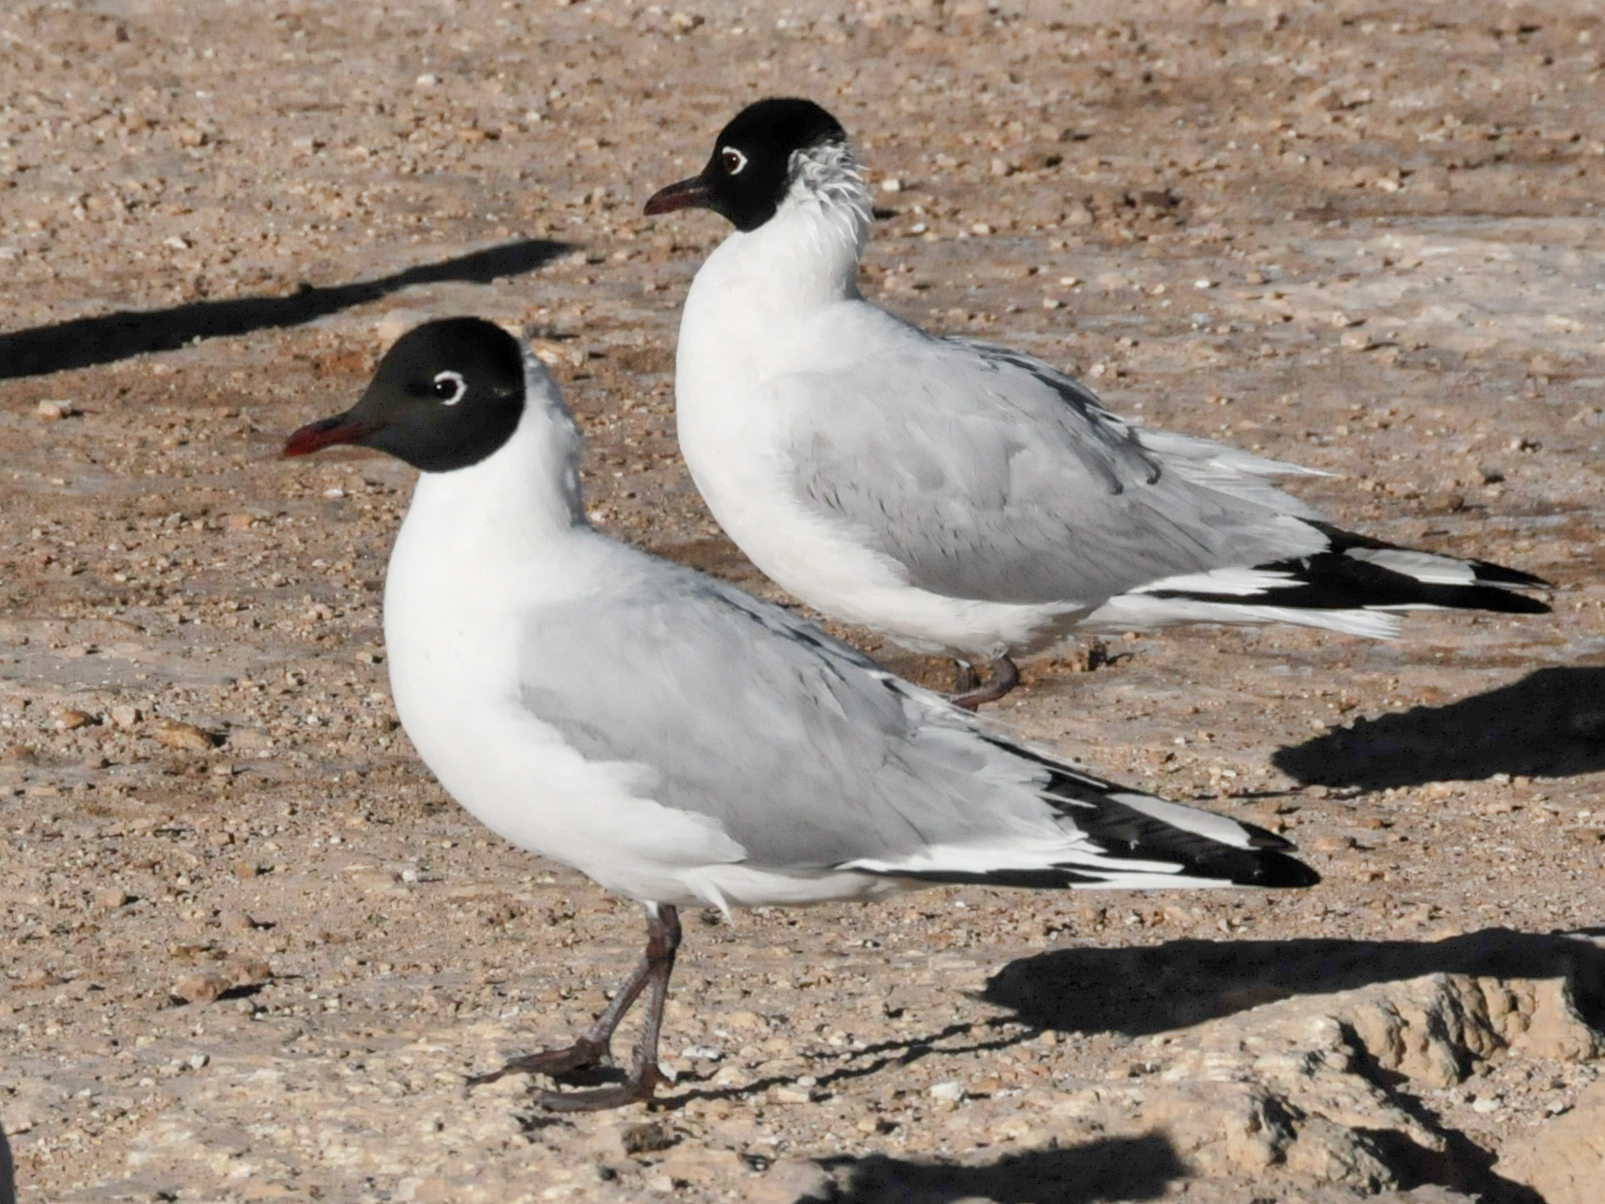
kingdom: Animalia
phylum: Chordata
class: Aves
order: Charadriiformes
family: Laridae
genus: Chroicocephalus
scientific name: Chroicocephalus serranus
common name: Andean gull
